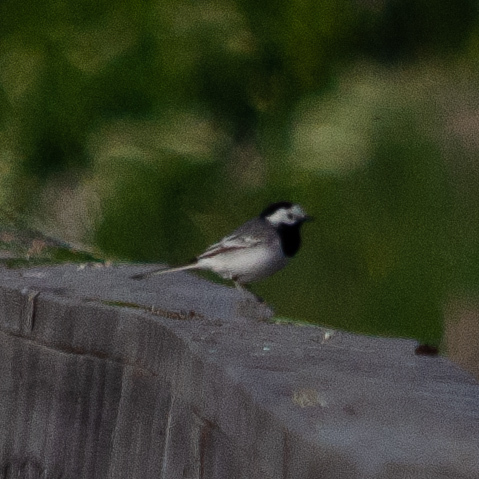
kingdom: Animalia
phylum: Chordata
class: Aves
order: Passeriformes
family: Motacillidae
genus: Motacilla
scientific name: Motacilla alba
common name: White wagtail
